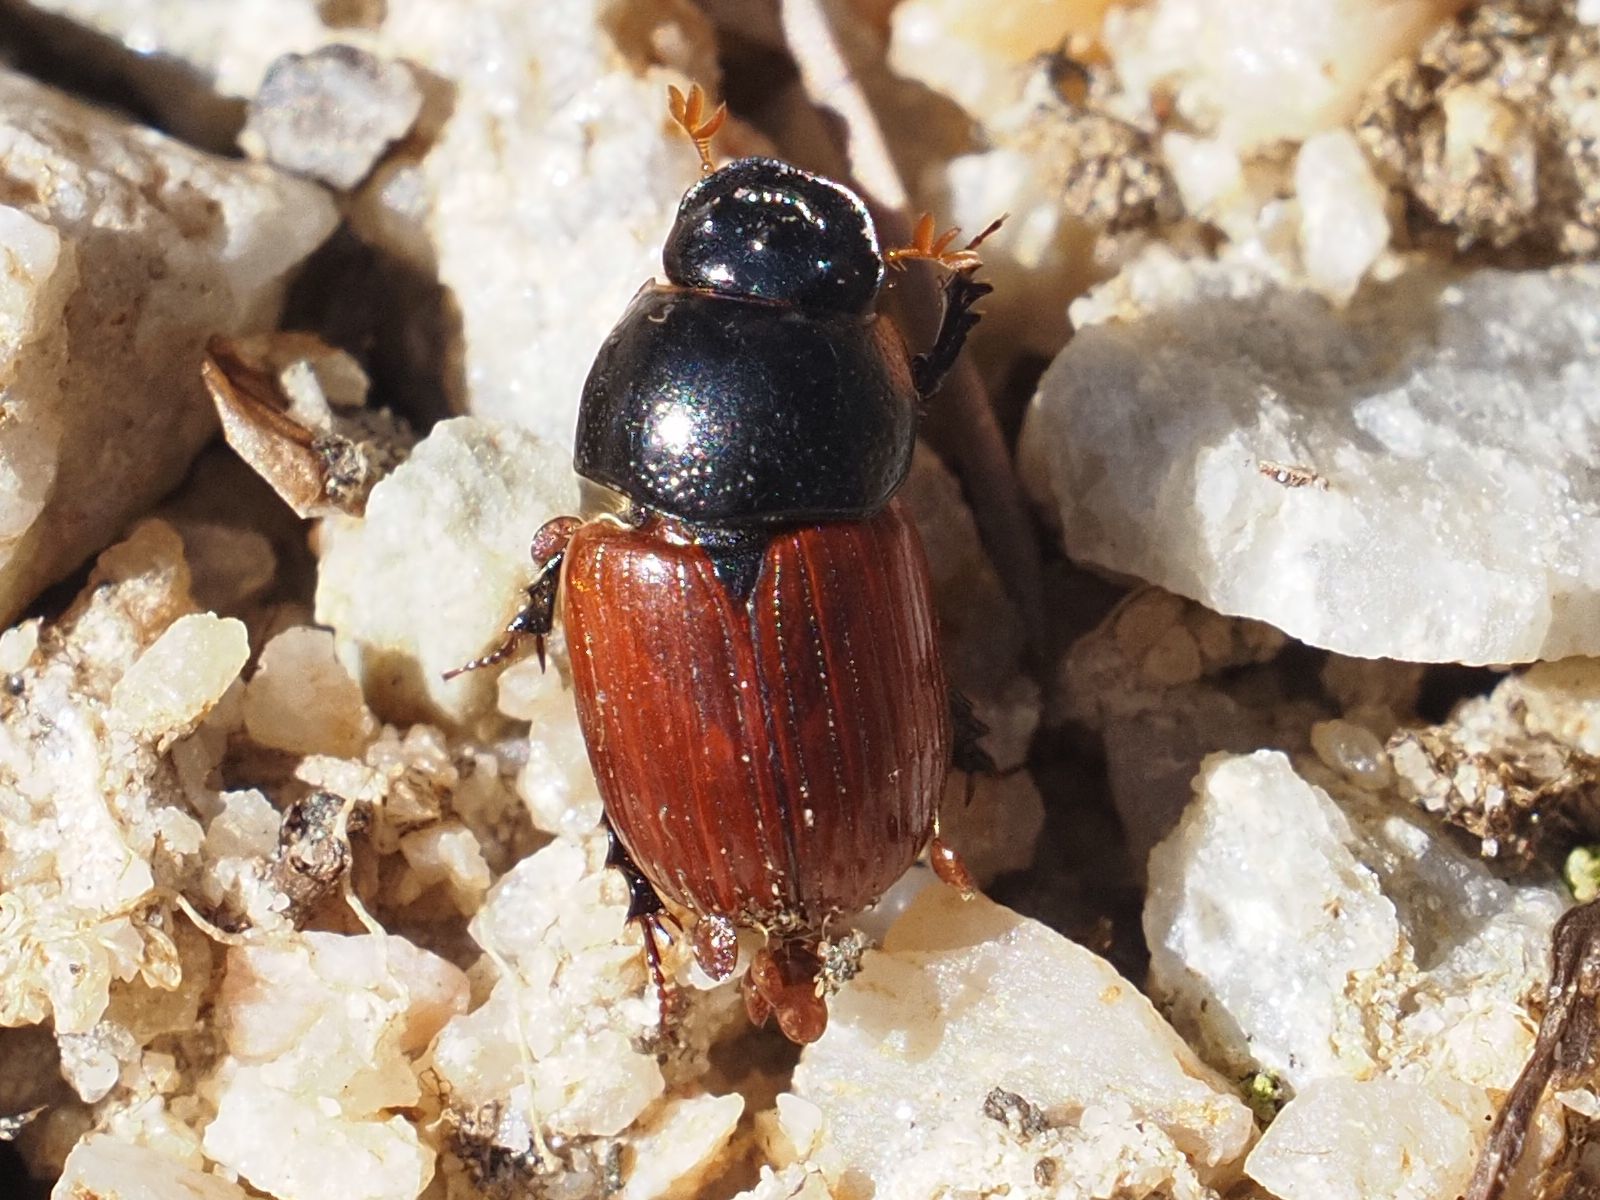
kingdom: Animalia
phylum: Arthropoda
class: Insecta
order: Coleoptera
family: Scarabaeidae
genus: Aphodius
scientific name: Aphodius fimetarius
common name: Common dung beetle
